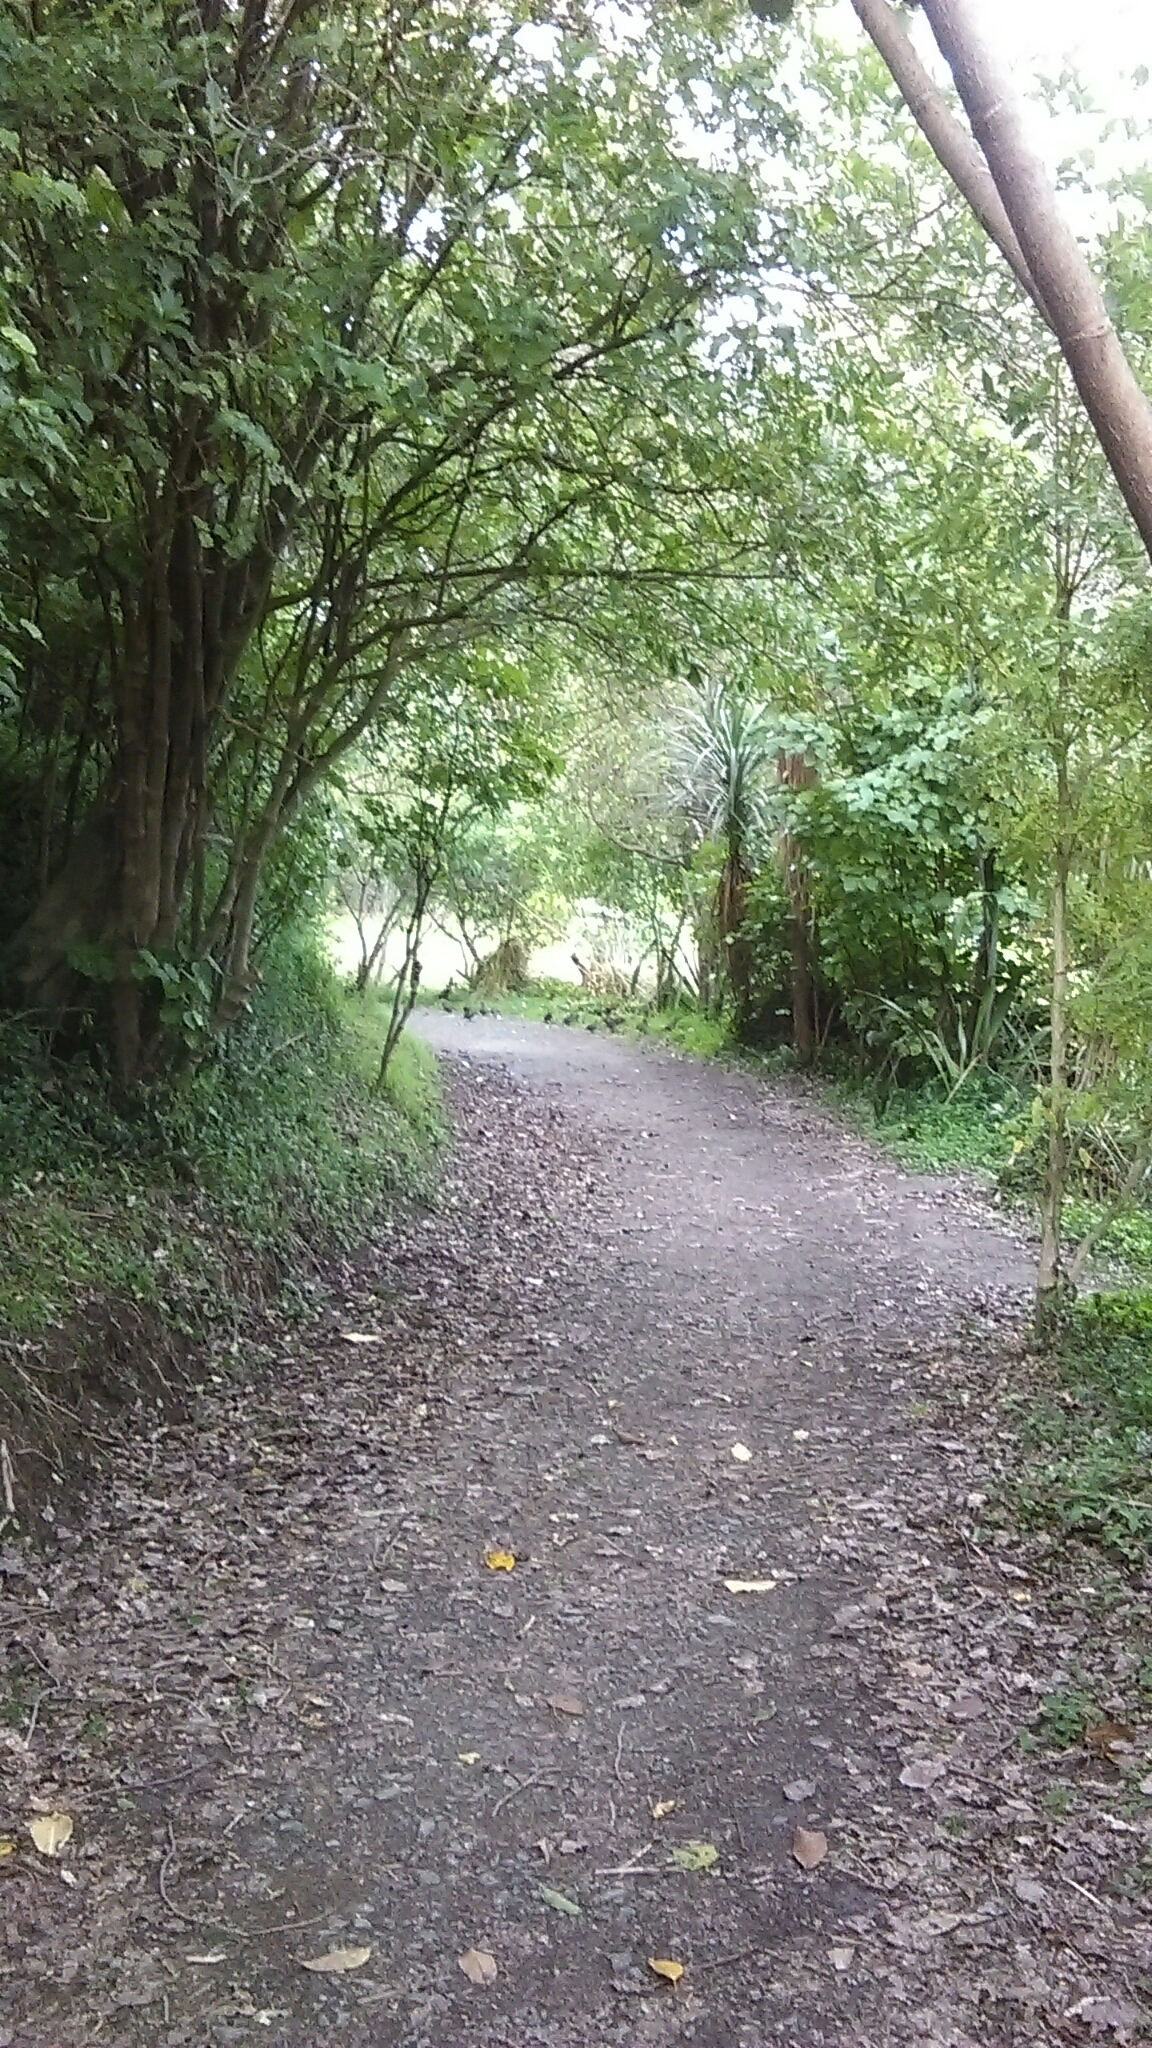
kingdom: Animalia
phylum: Chordata
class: Aves
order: Galliformes
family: Odontophoridae
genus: Callipepla
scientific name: Callipepla californica
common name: California quail
